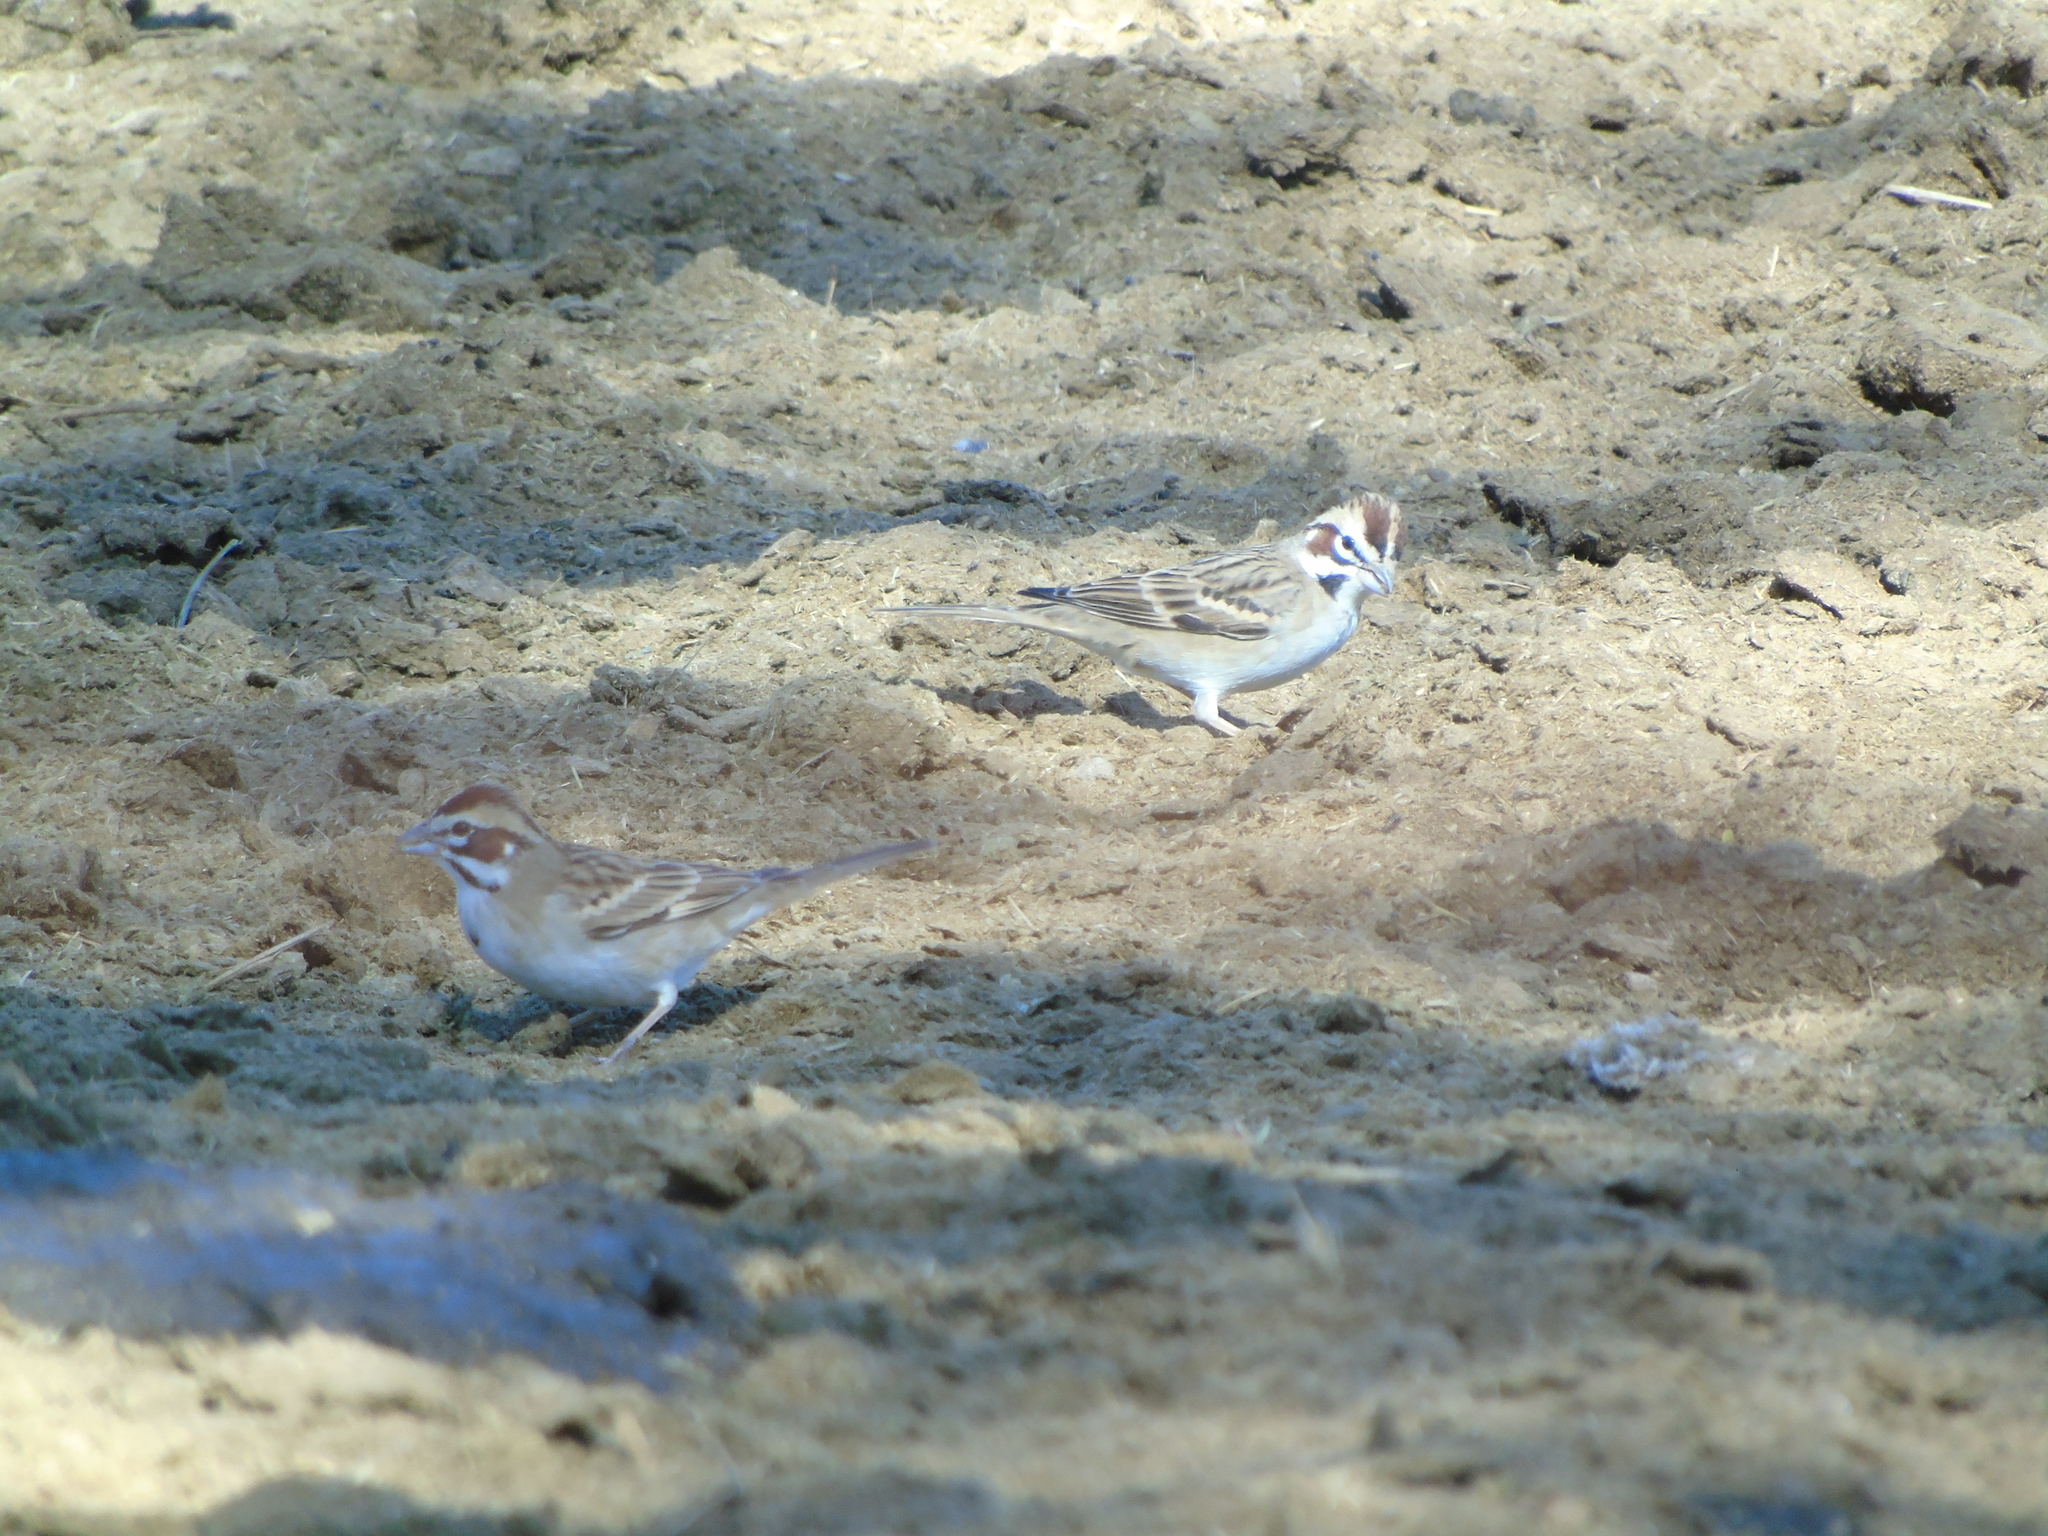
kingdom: Animalia
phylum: Chordata
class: Aves
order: Passeriformes
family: Passerellidae
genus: Chondestes
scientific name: Chondestes grammacus
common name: Lark sparrow
